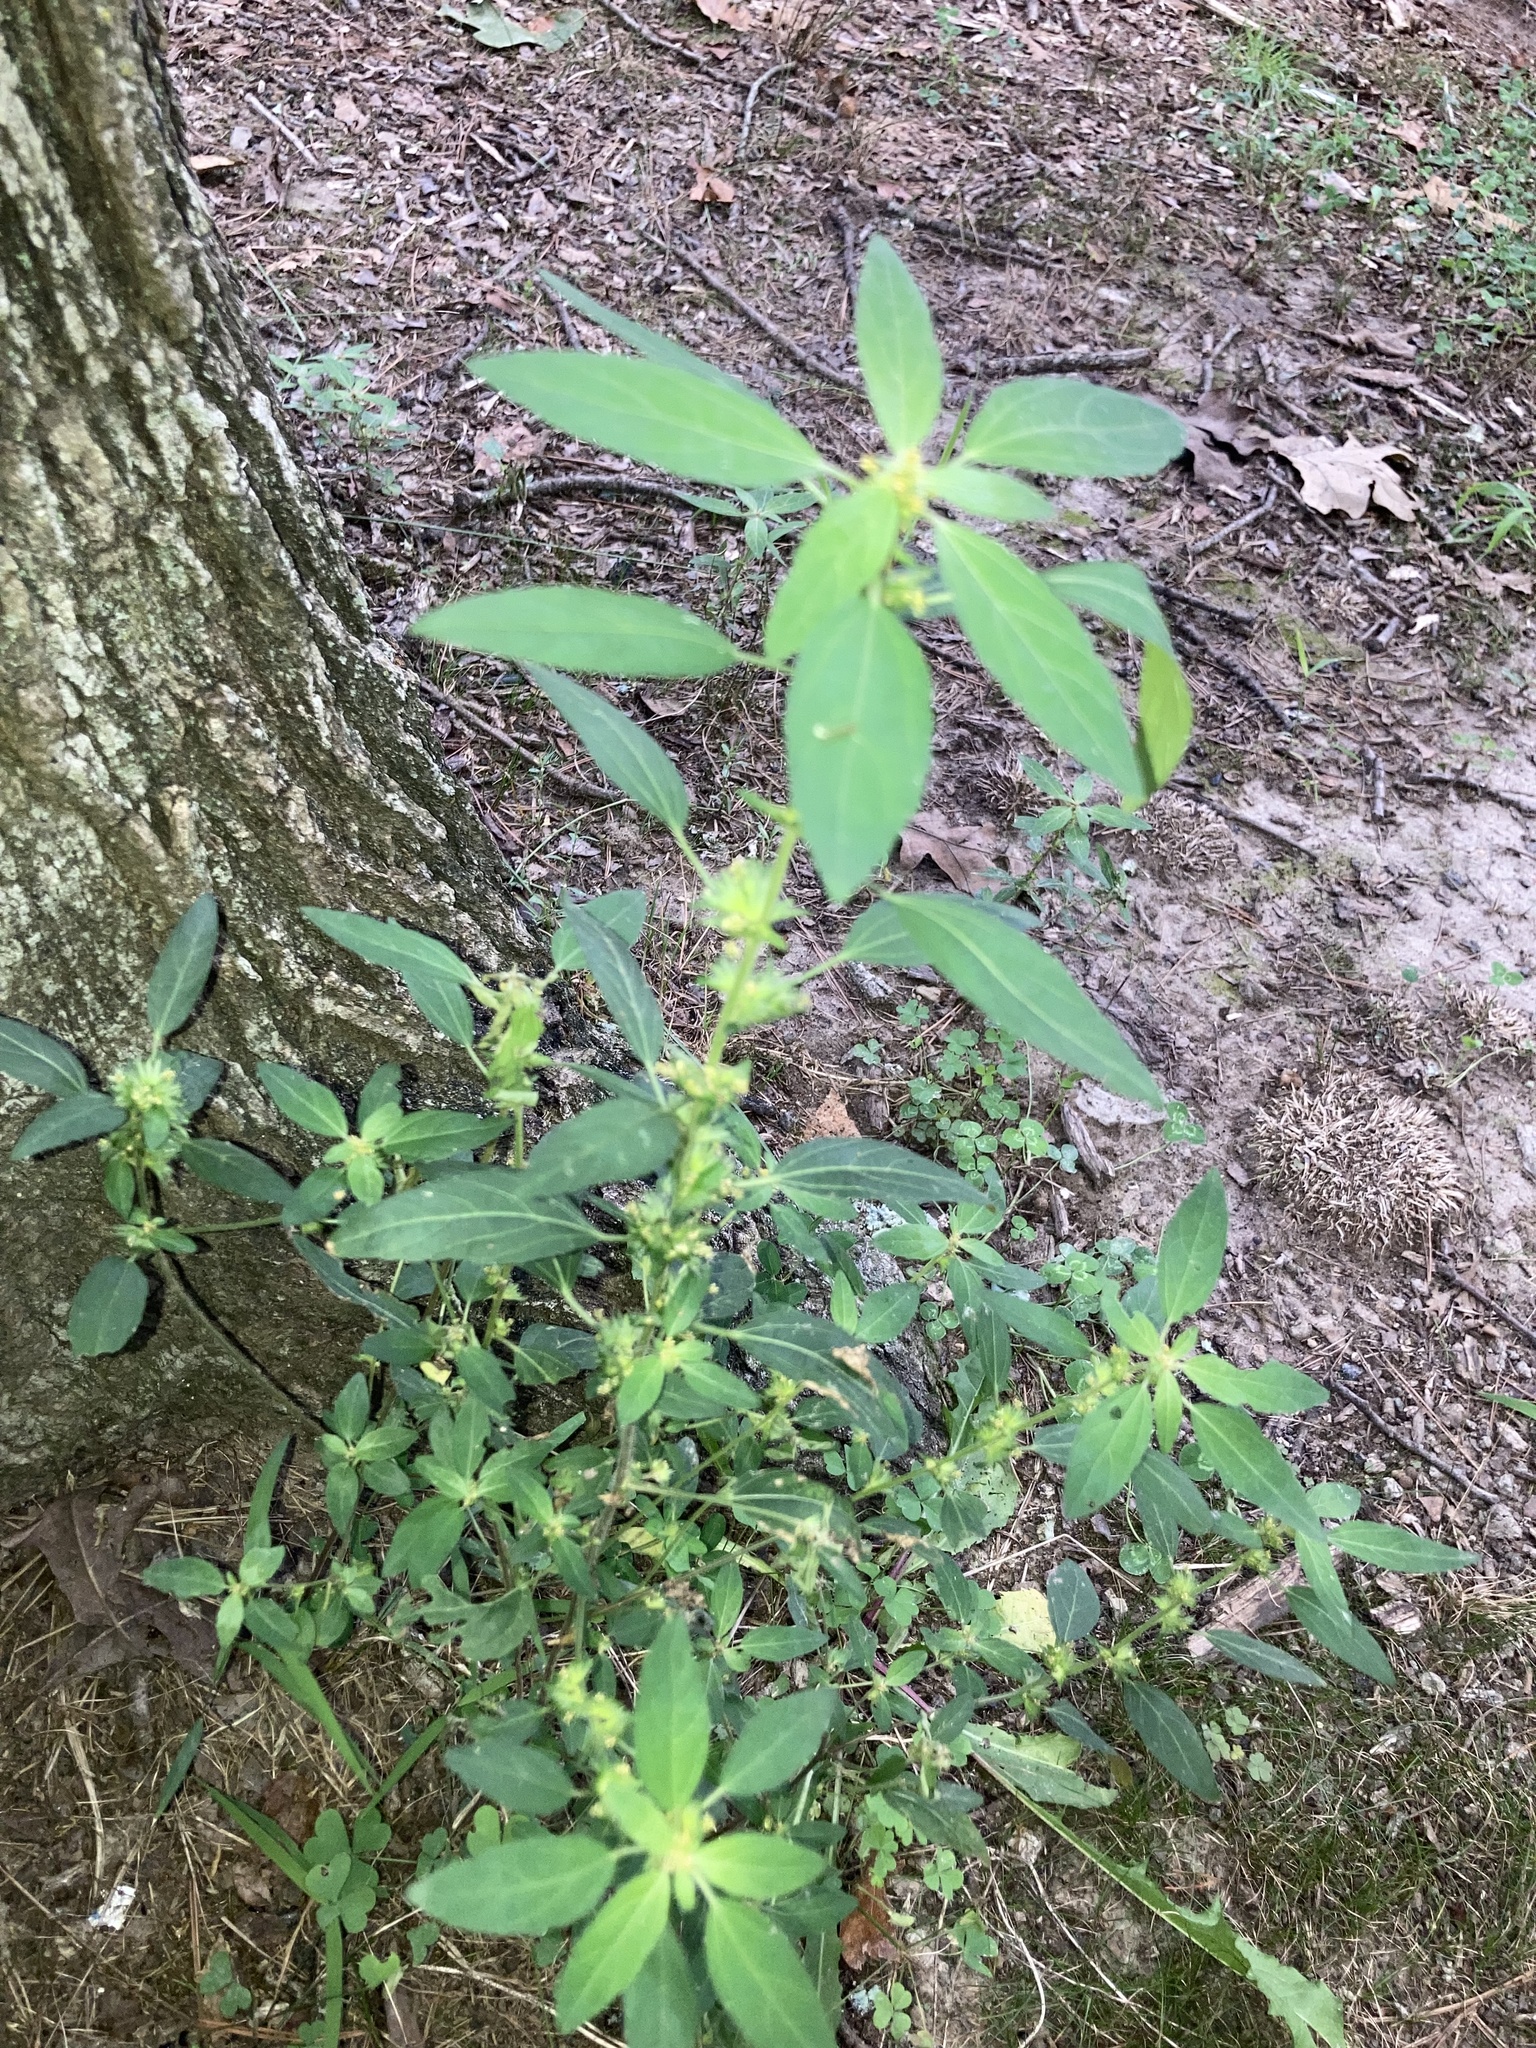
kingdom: Plantae
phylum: Tracheophyta
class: Magnoliopsida
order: Malpighiales
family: Euphorbiaceae
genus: Acalypha
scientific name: Acalypha virginica
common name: Virginia copperleaf
